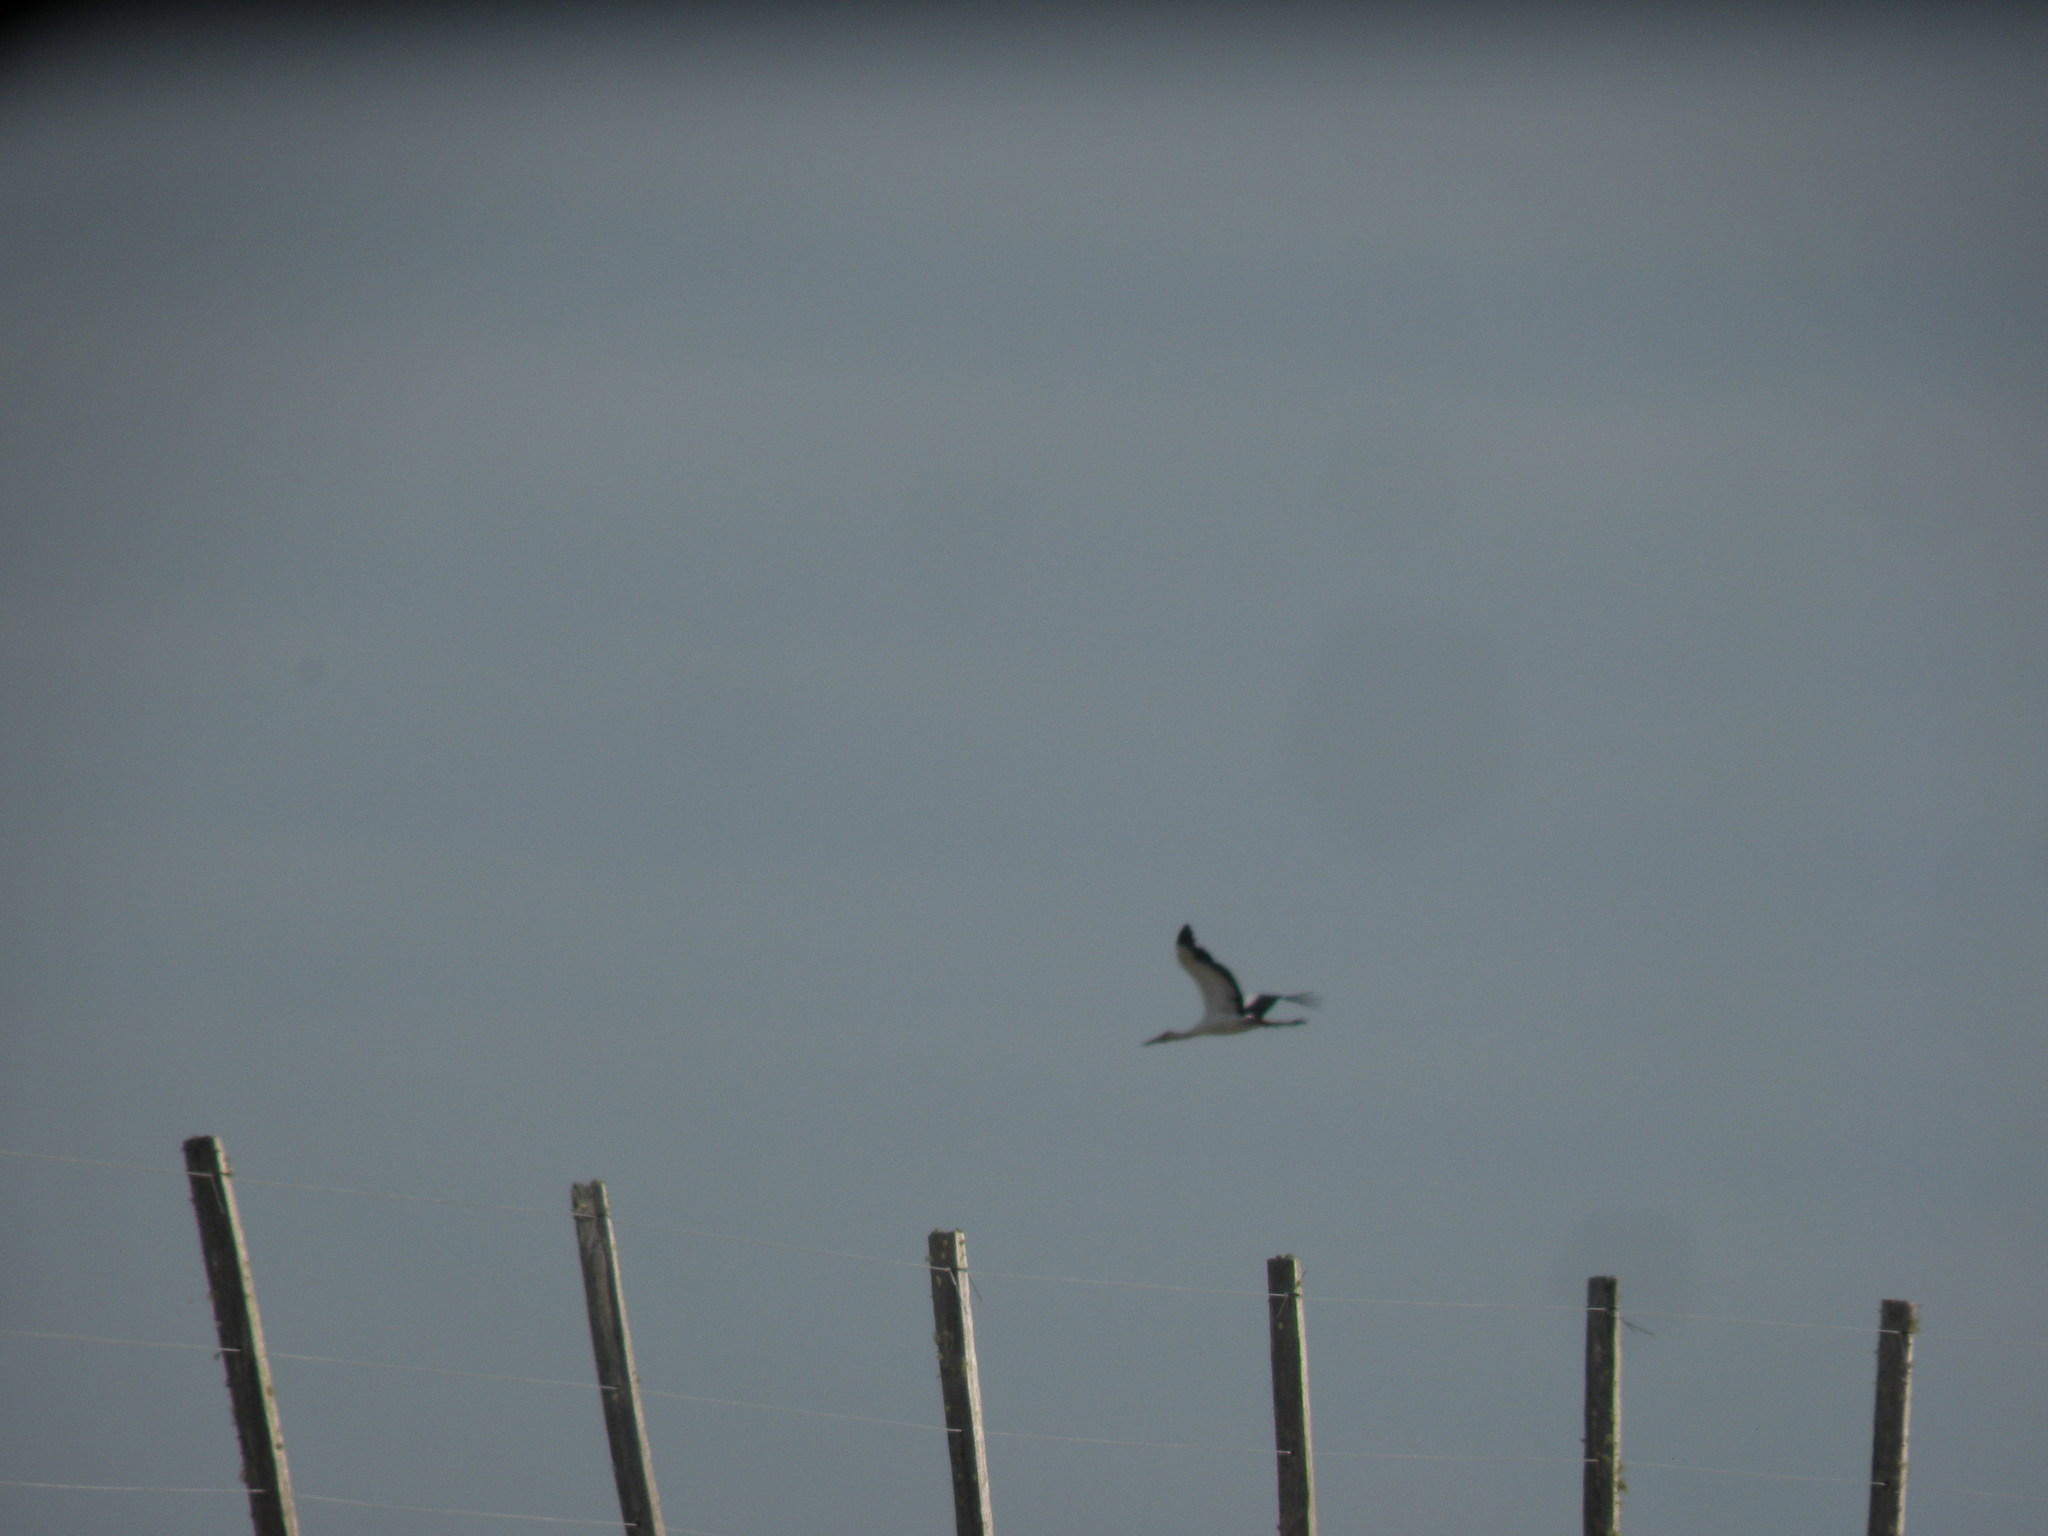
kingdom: Animalia
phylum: Chordata
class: Aves
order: Ciconiiformes
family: Ciconiidae
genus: Ciconia
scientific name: Ciconia maguari
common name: Maguari stork
